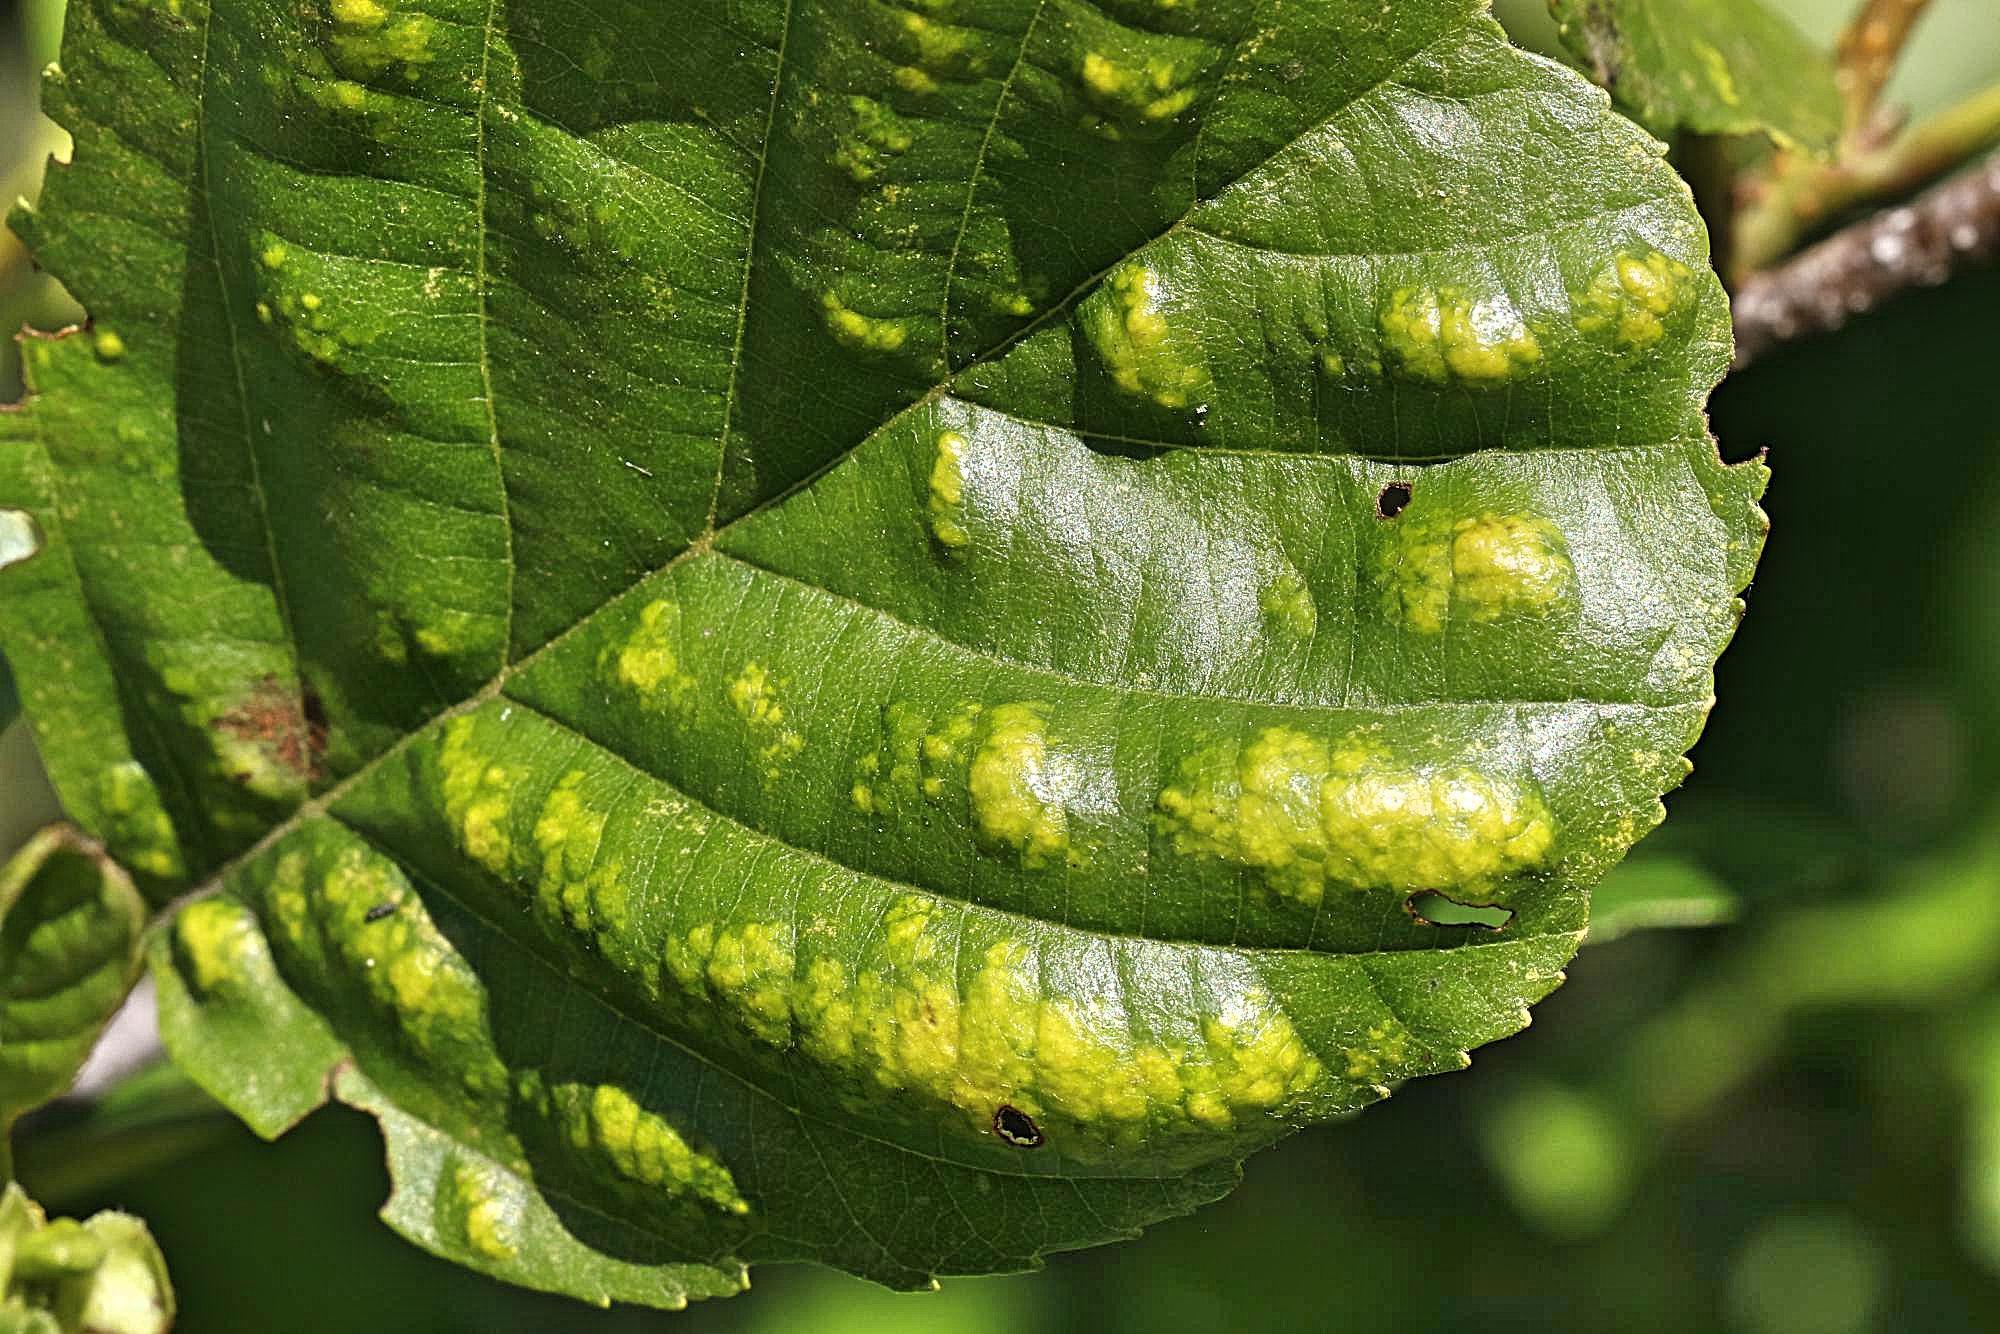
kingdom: Animalia
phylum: Arthropoda
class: Arachnida
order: Trombidiformes
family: Eriophyidae
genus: Acalitus
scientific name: Acalitus brevitarsus
